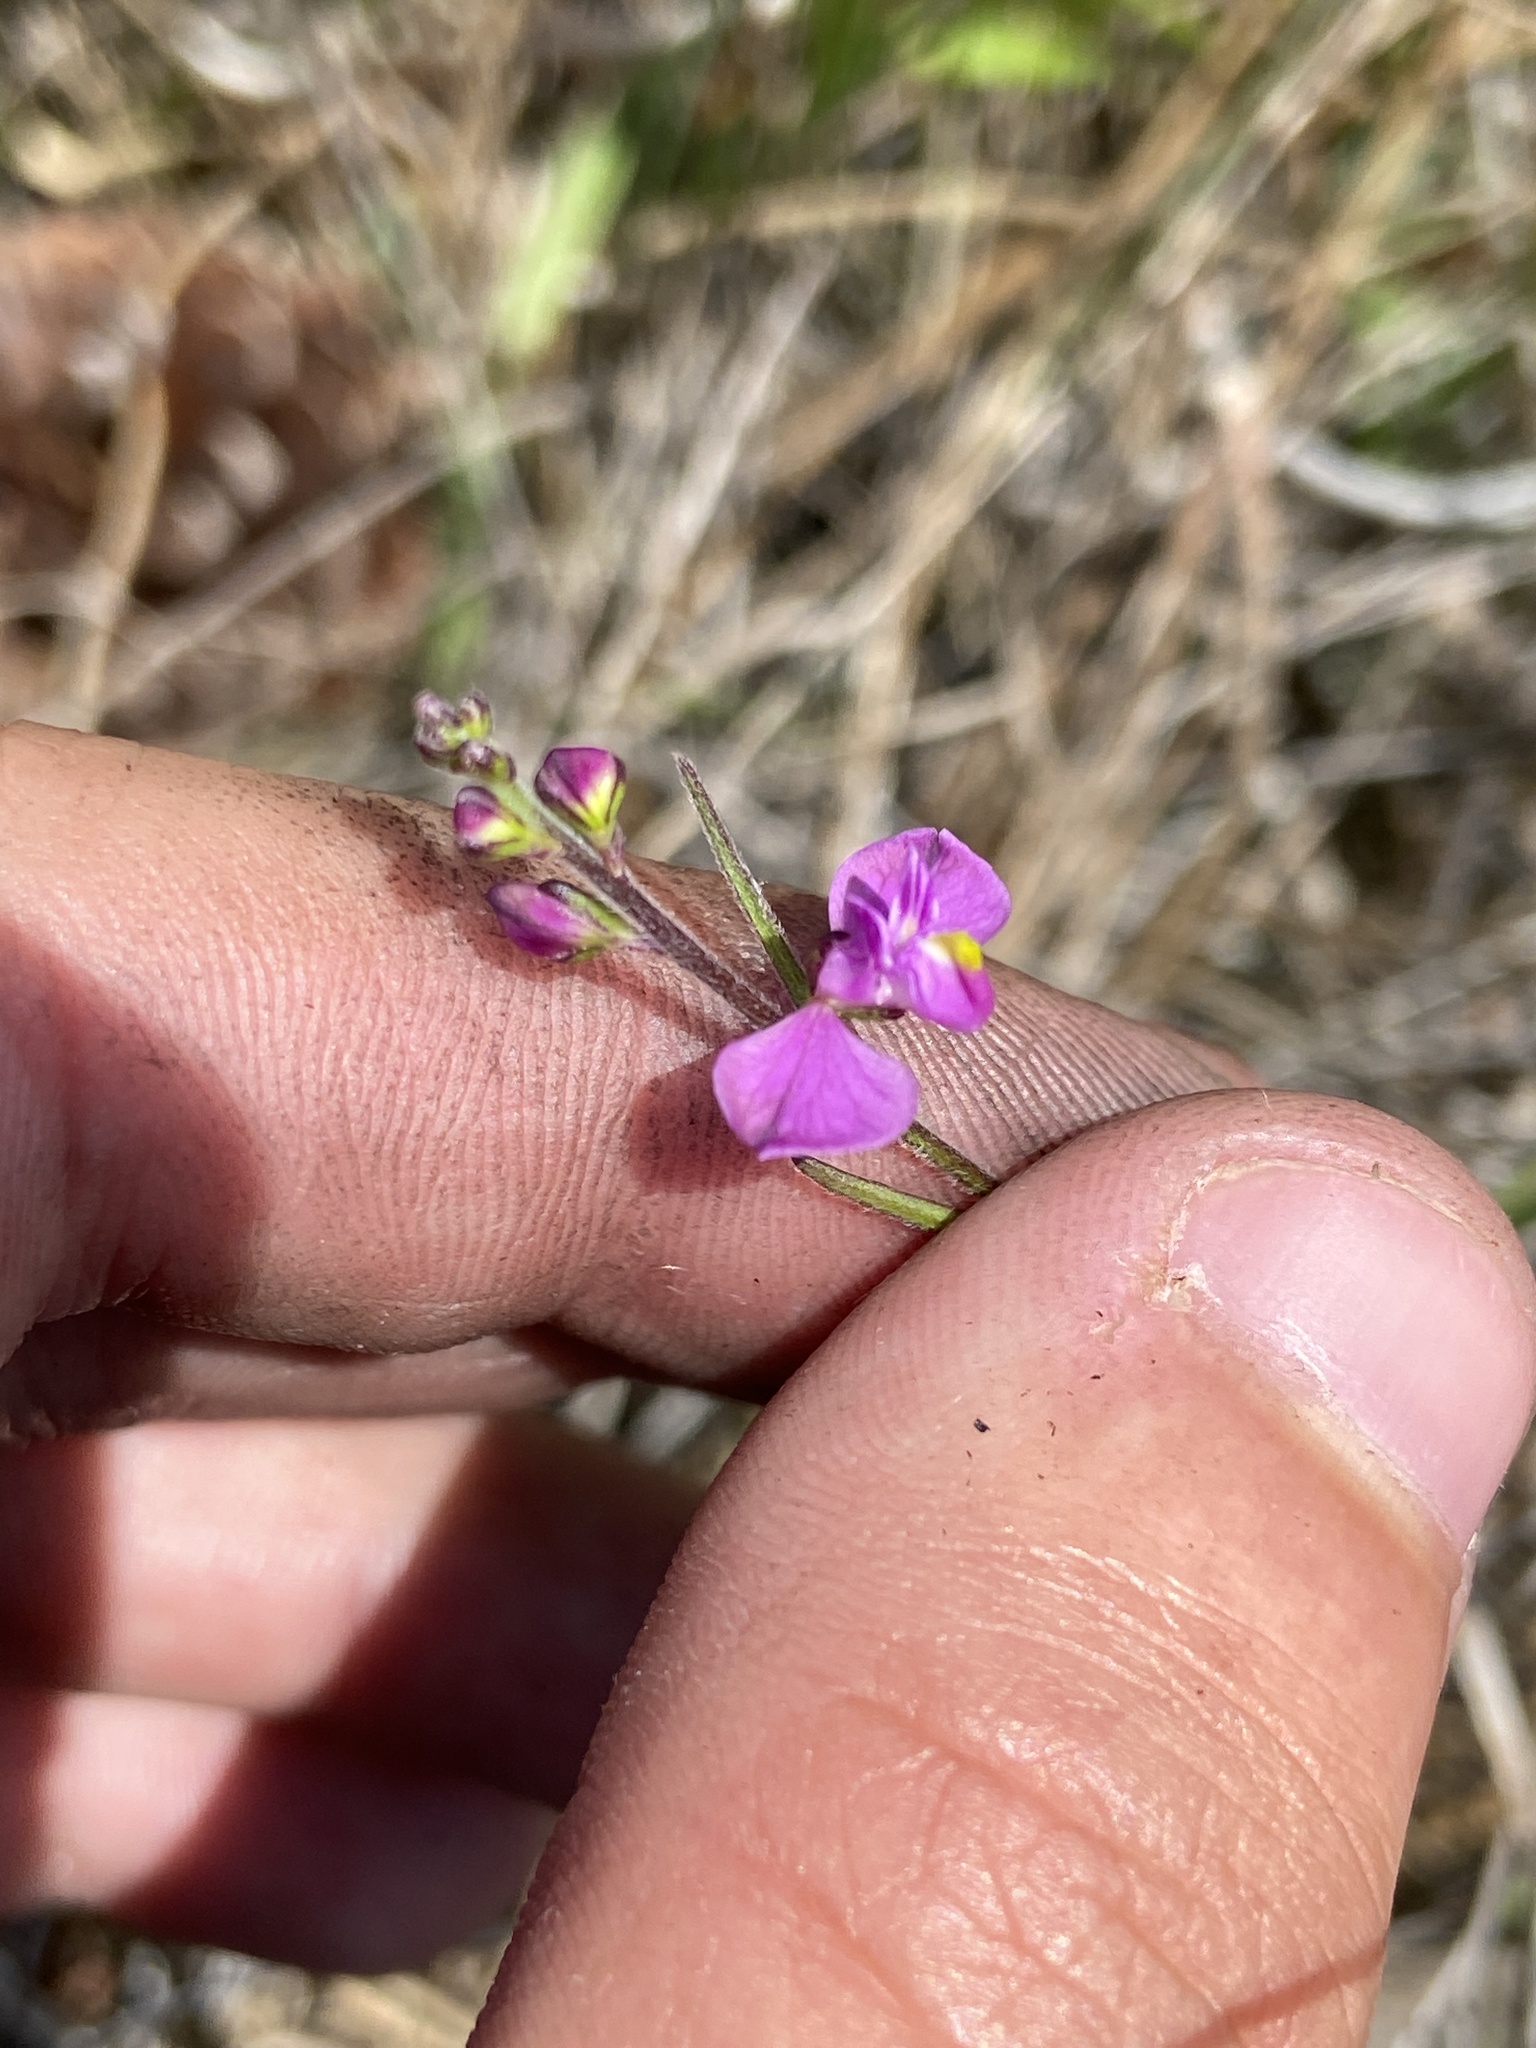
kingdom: Plantae
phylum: Tracheophyta
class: Magnoliopsida
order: Fabales
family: Polygalaceae
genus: Asemeia
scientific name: Asemeia grandiflora
